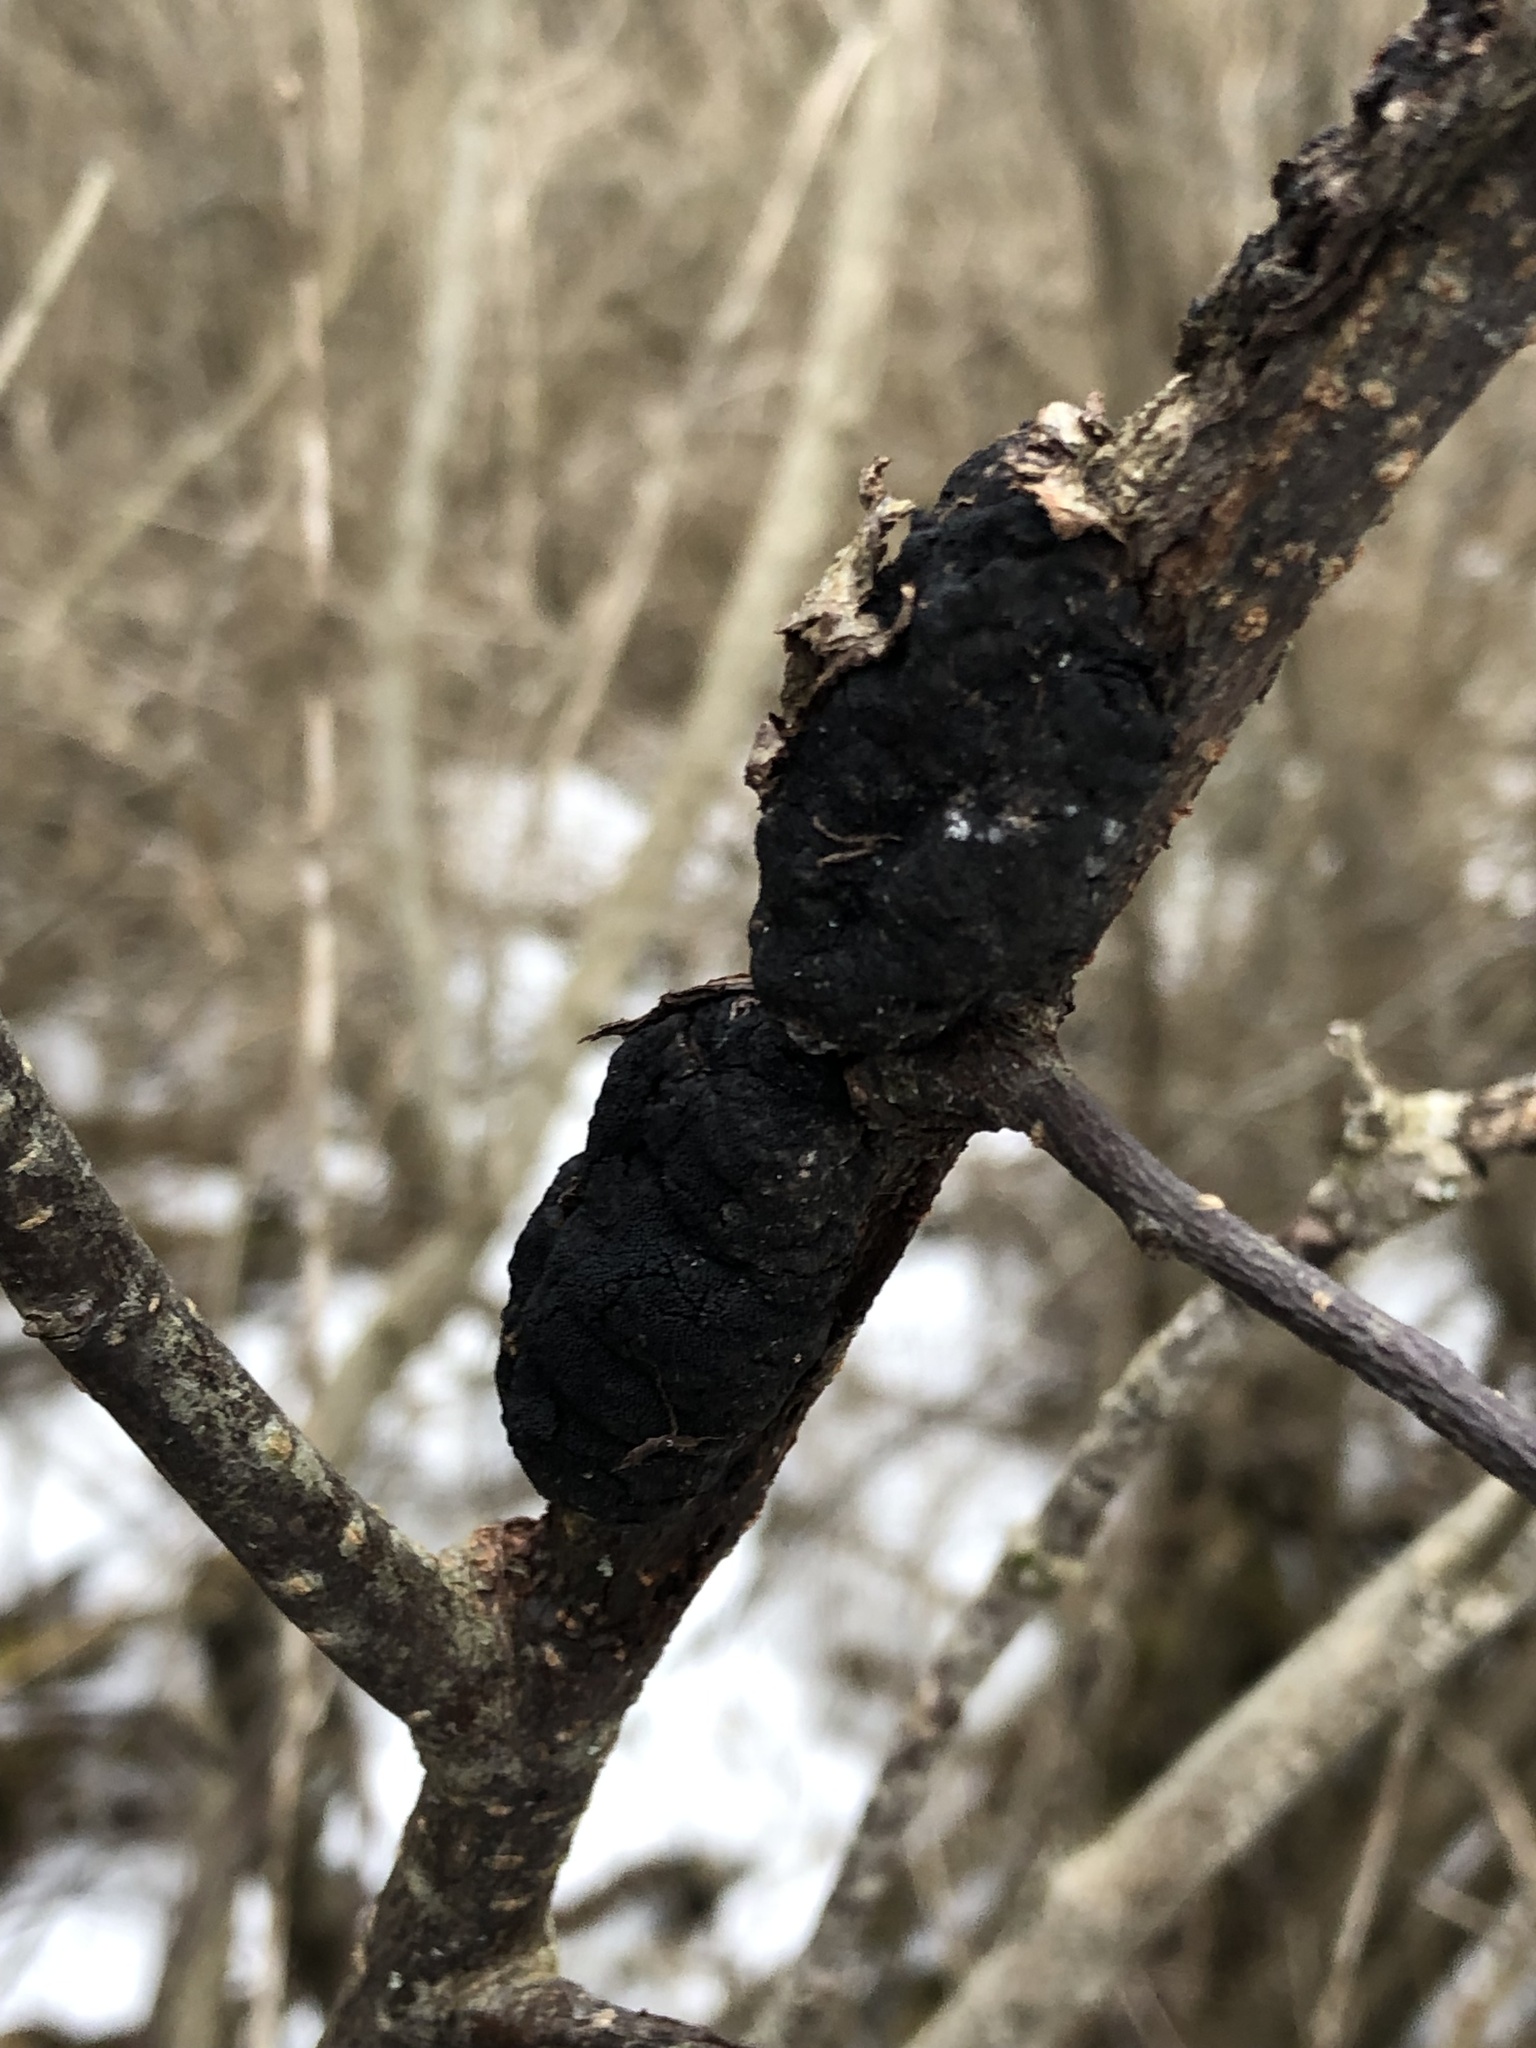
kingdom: Fungi
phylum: Ascomycota
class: Dothideomycetes
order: Venturiales
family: Venturiaceae
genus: Apiosporina
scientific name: Apiosporina morbosa
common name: Black knot
